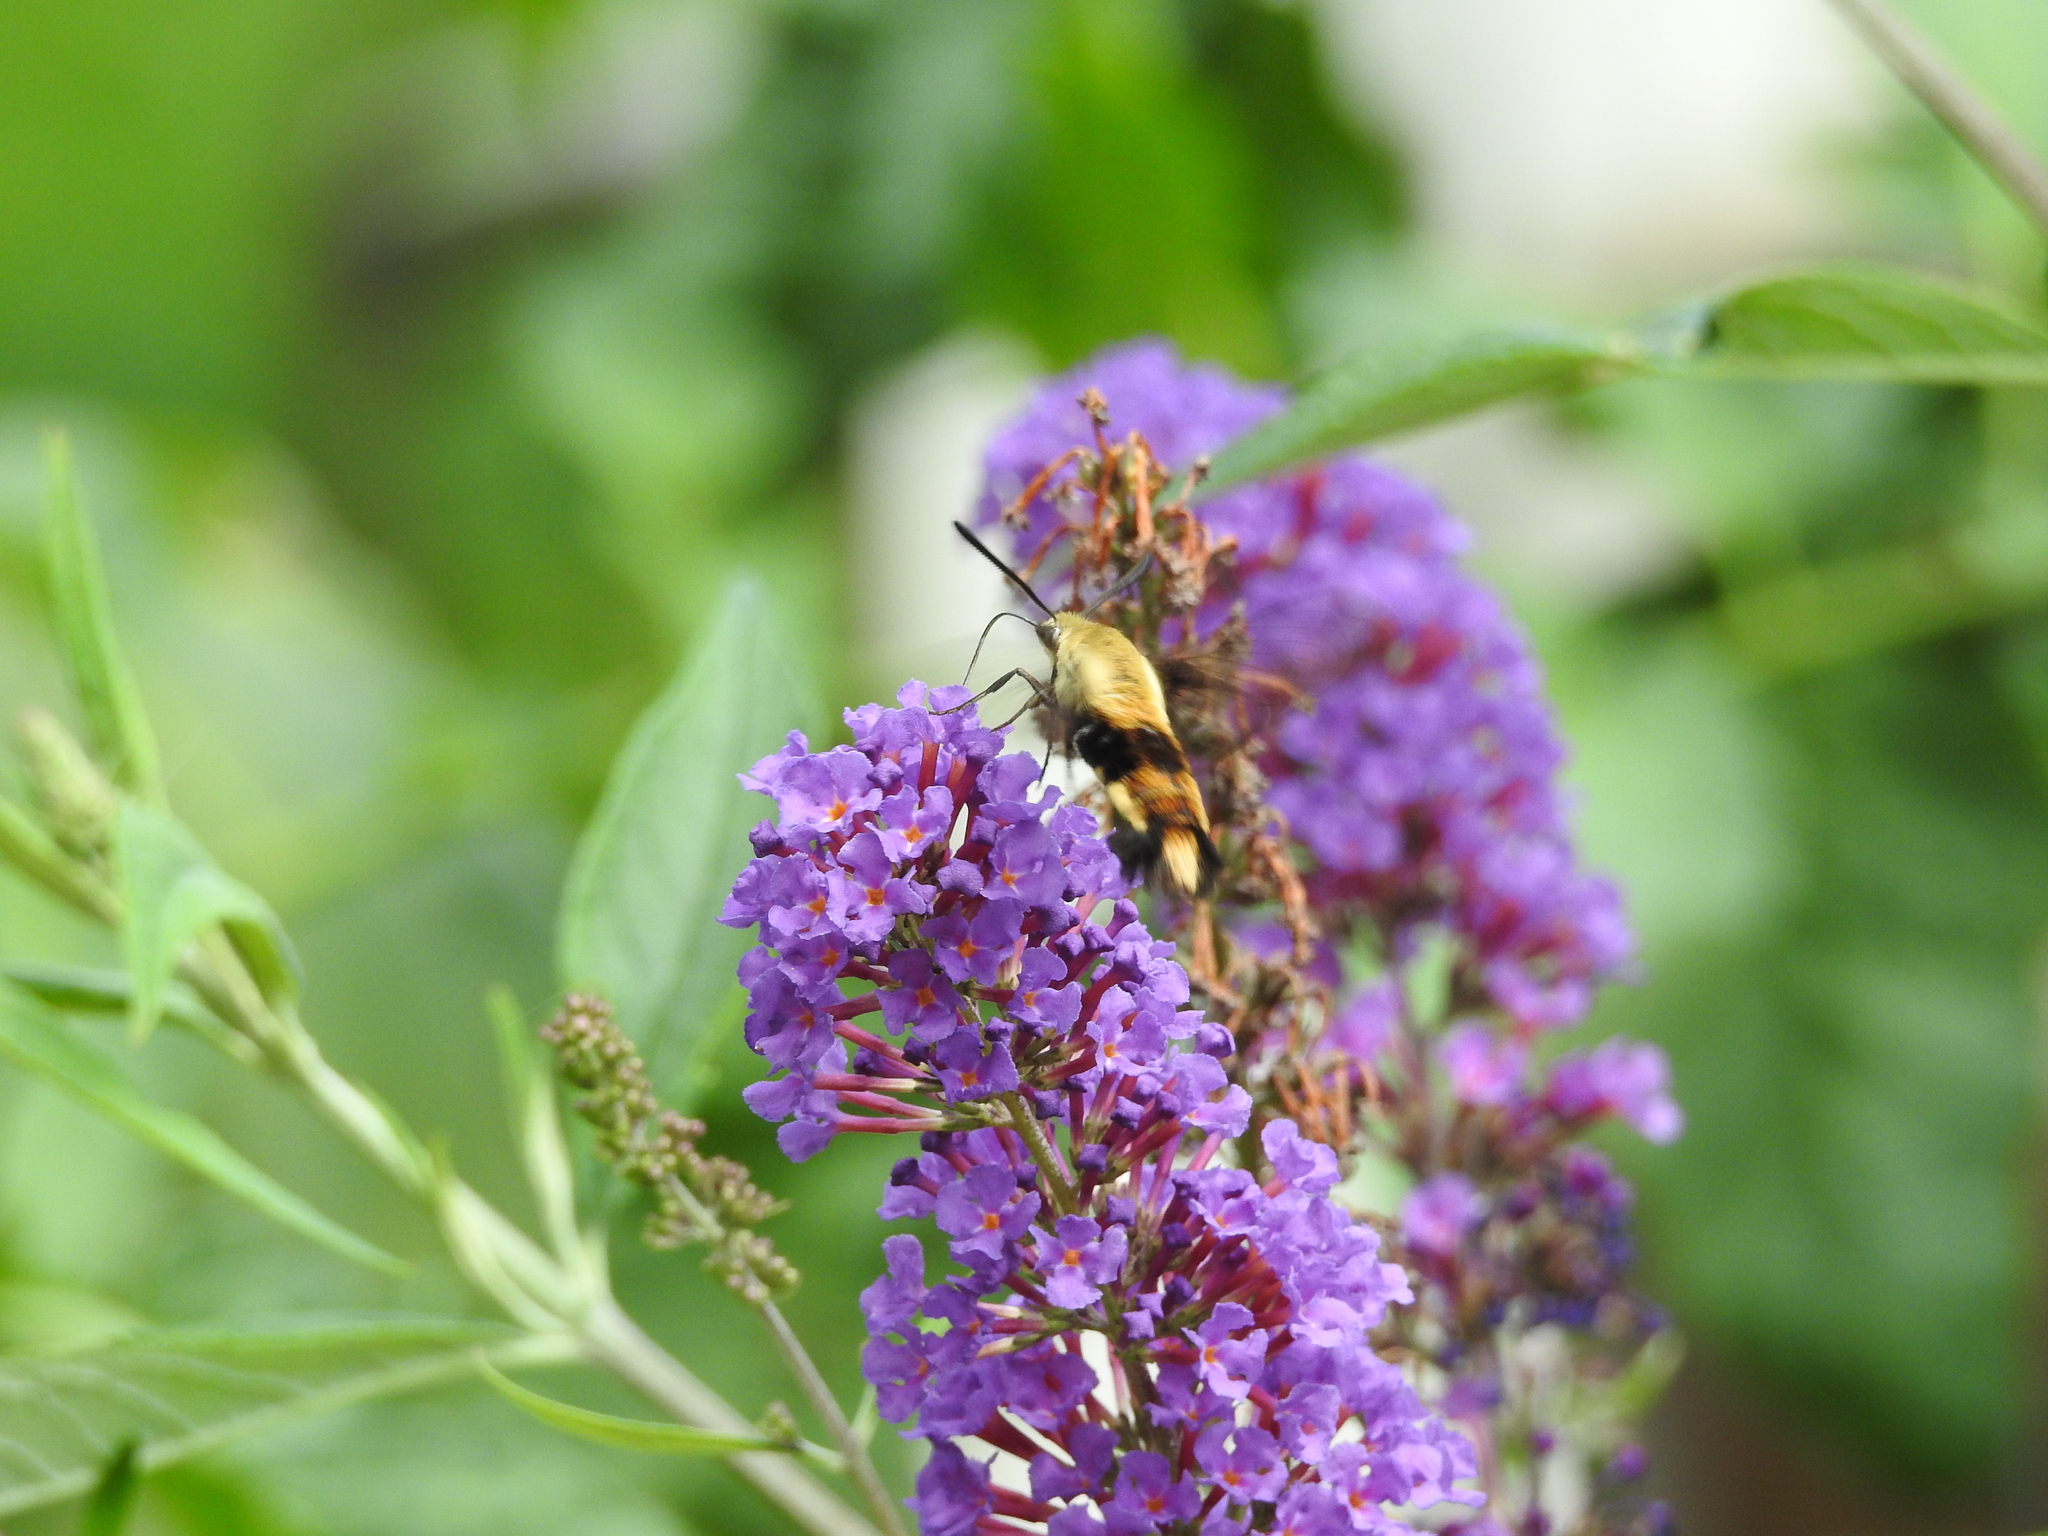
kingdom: Animalia
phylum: Arthropoda
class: Insecta
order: Lepidoptera
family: Sphingidae
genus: Hemaris
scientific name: Hemaris diffinis
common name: Bumblebee moth
